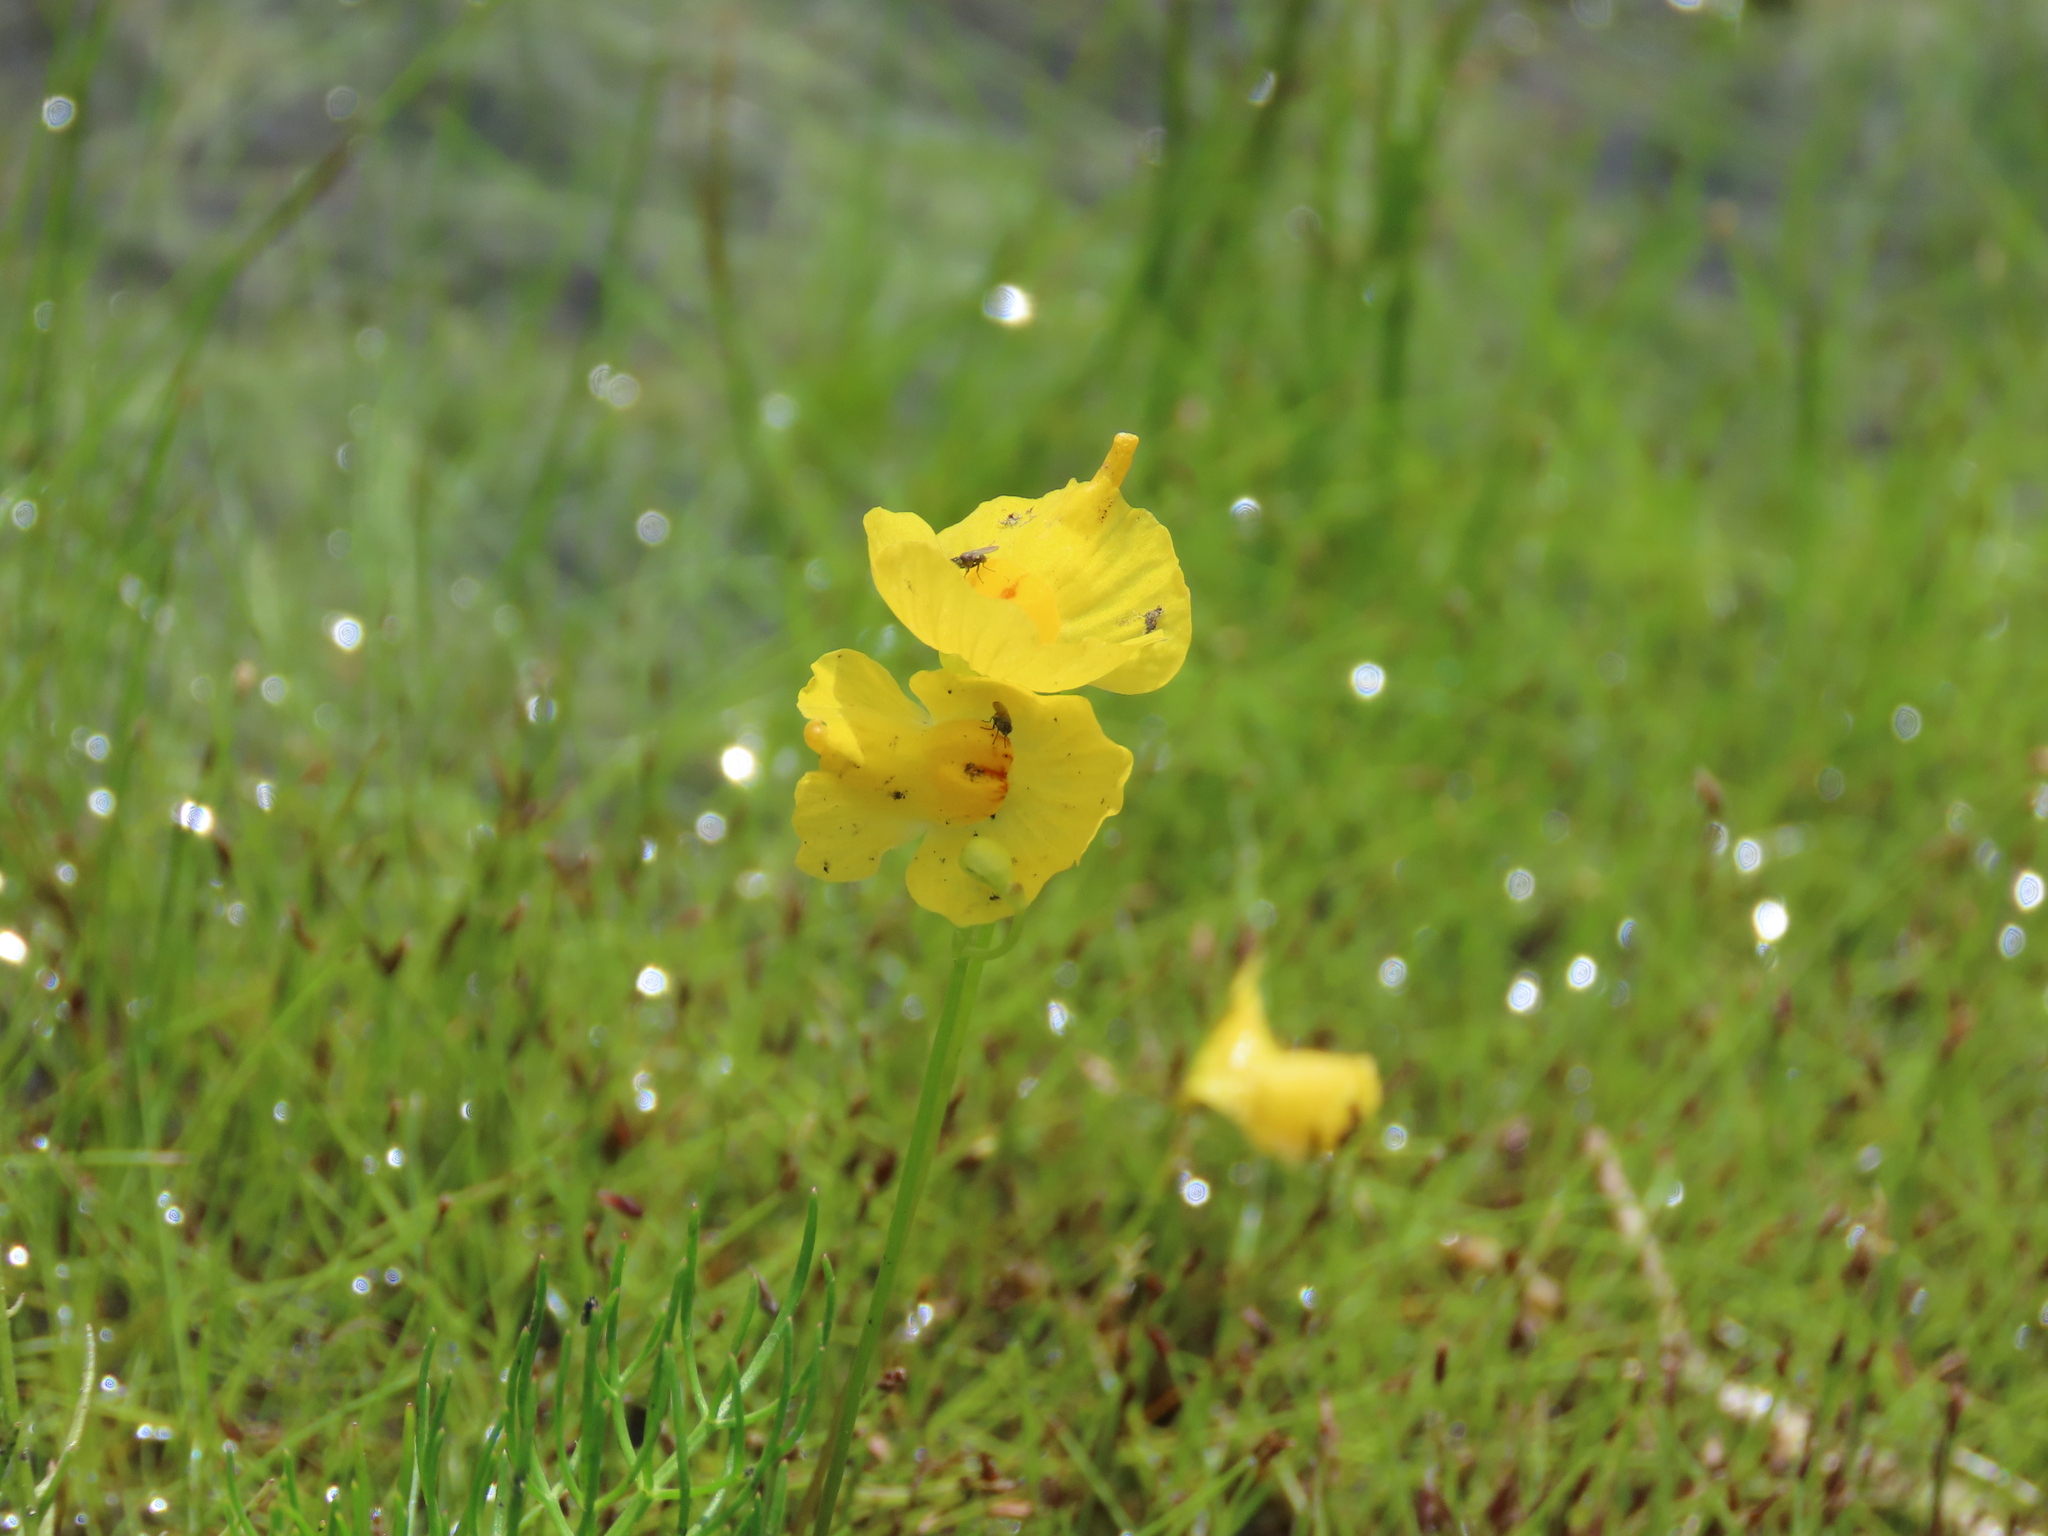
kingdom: Plantae
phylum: Tracheophyta
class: Magnoliopsida
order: Lamiales
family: Lentibulariaceae
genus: Utricularia
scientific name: Utricularia gibba
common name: Humped bladderwort
